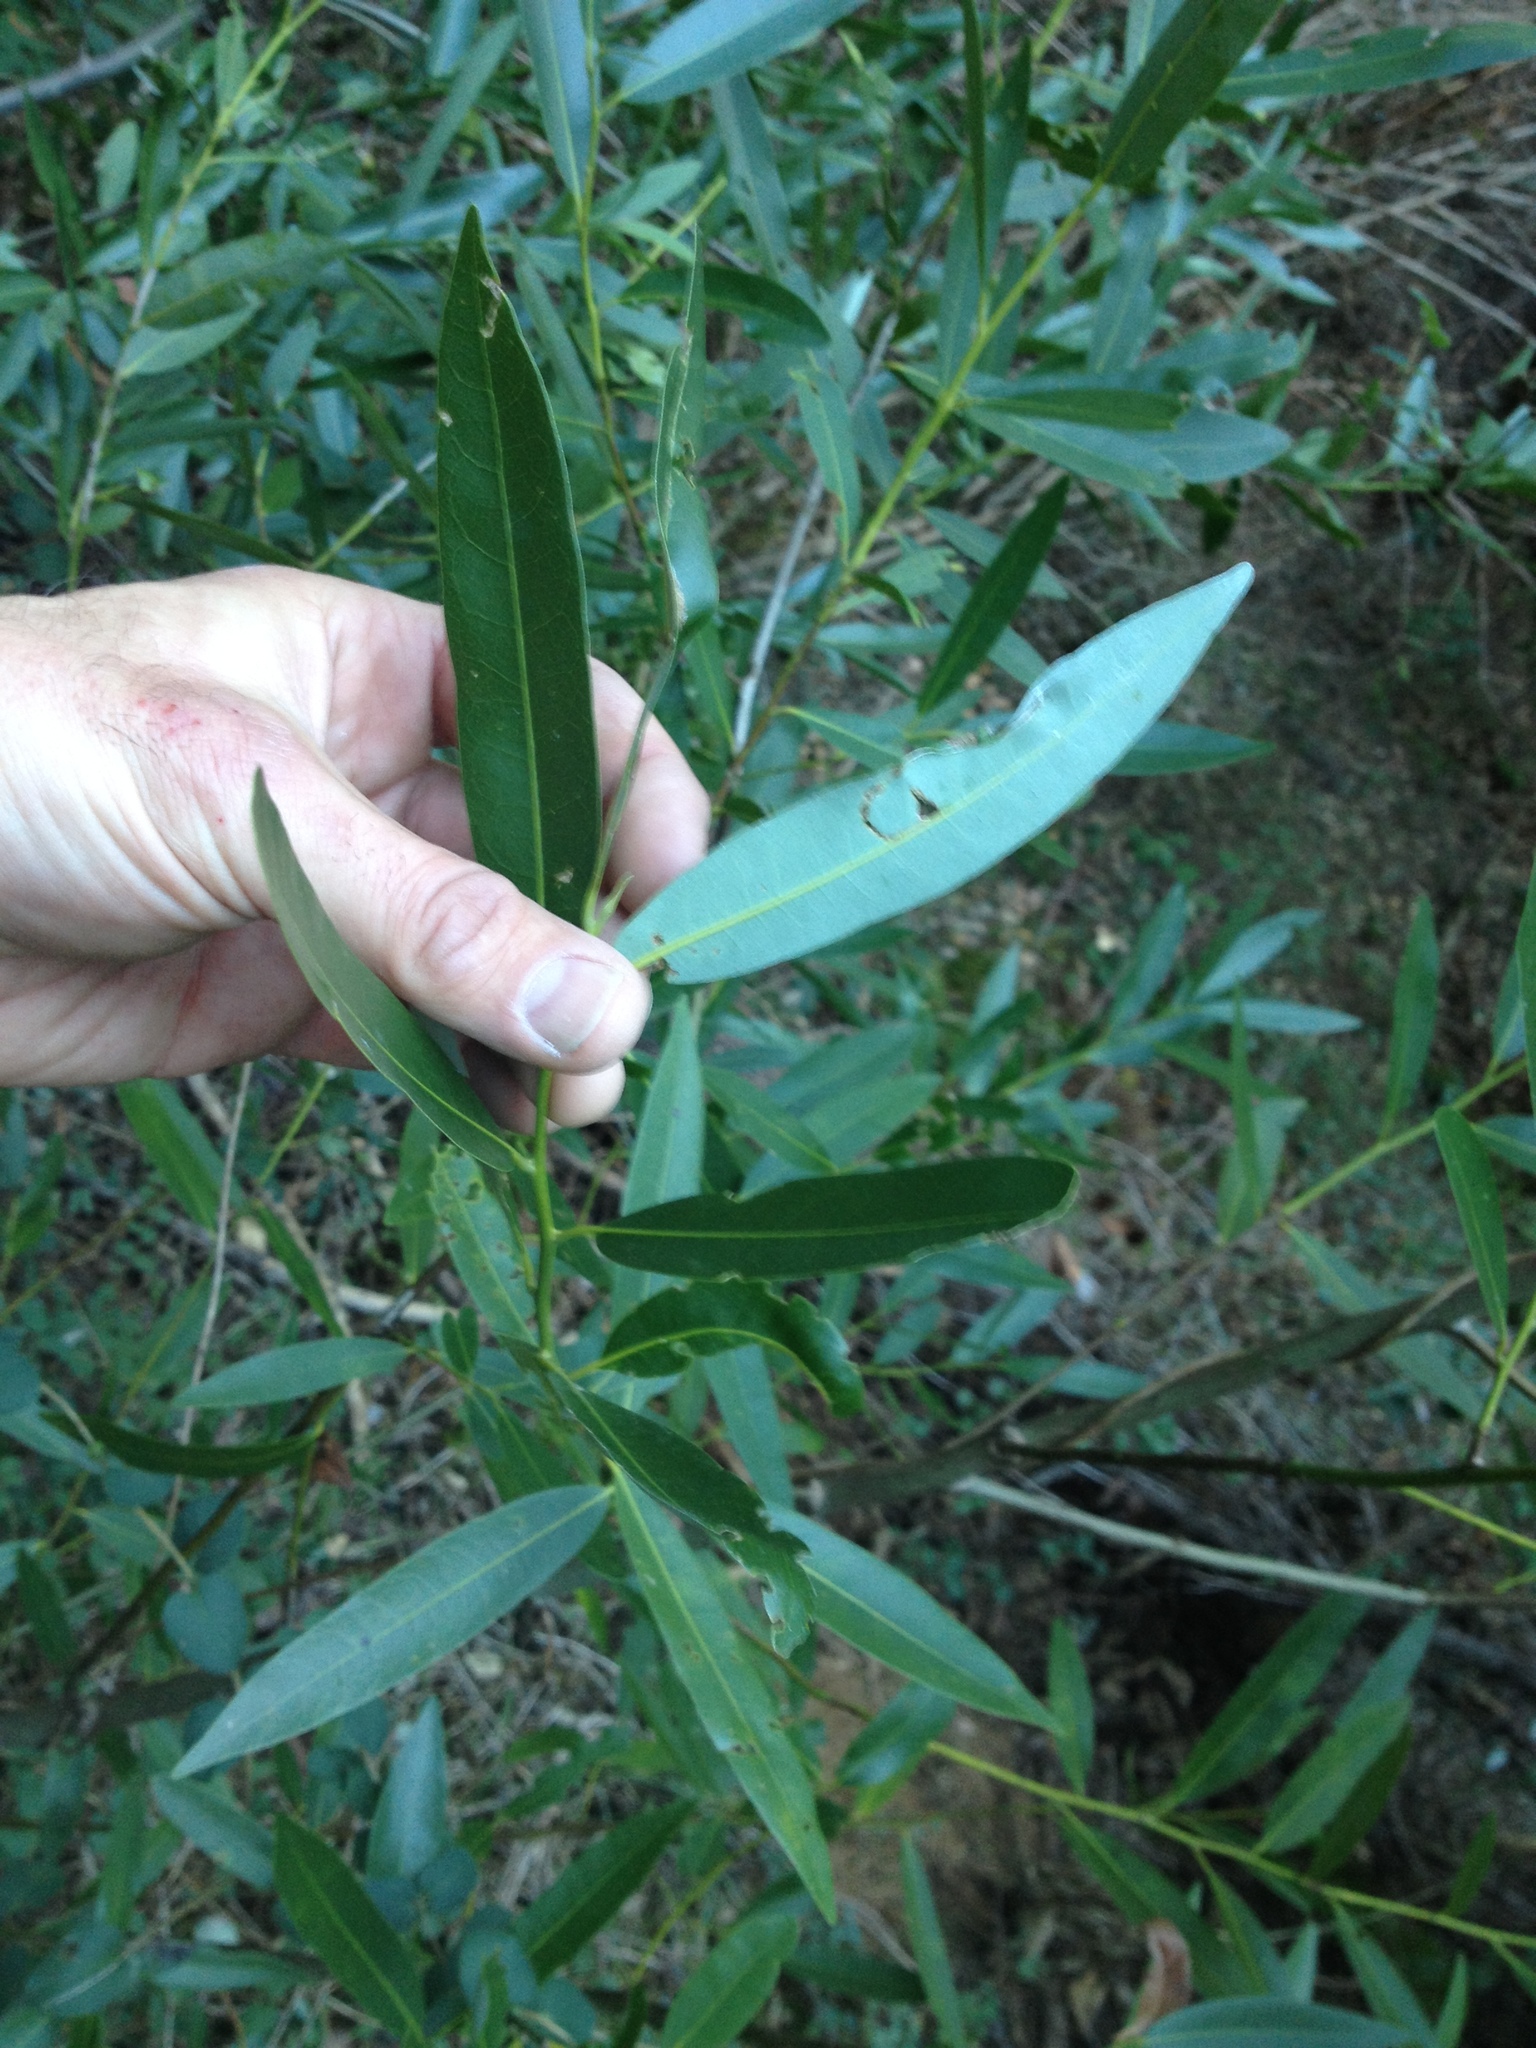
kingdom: Plantae
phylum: Tracheophyta
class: Magnoliopsida
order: Laurales
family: Lauraceae
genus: Umbellularia
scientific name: Umbellularia californica
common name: California bay
